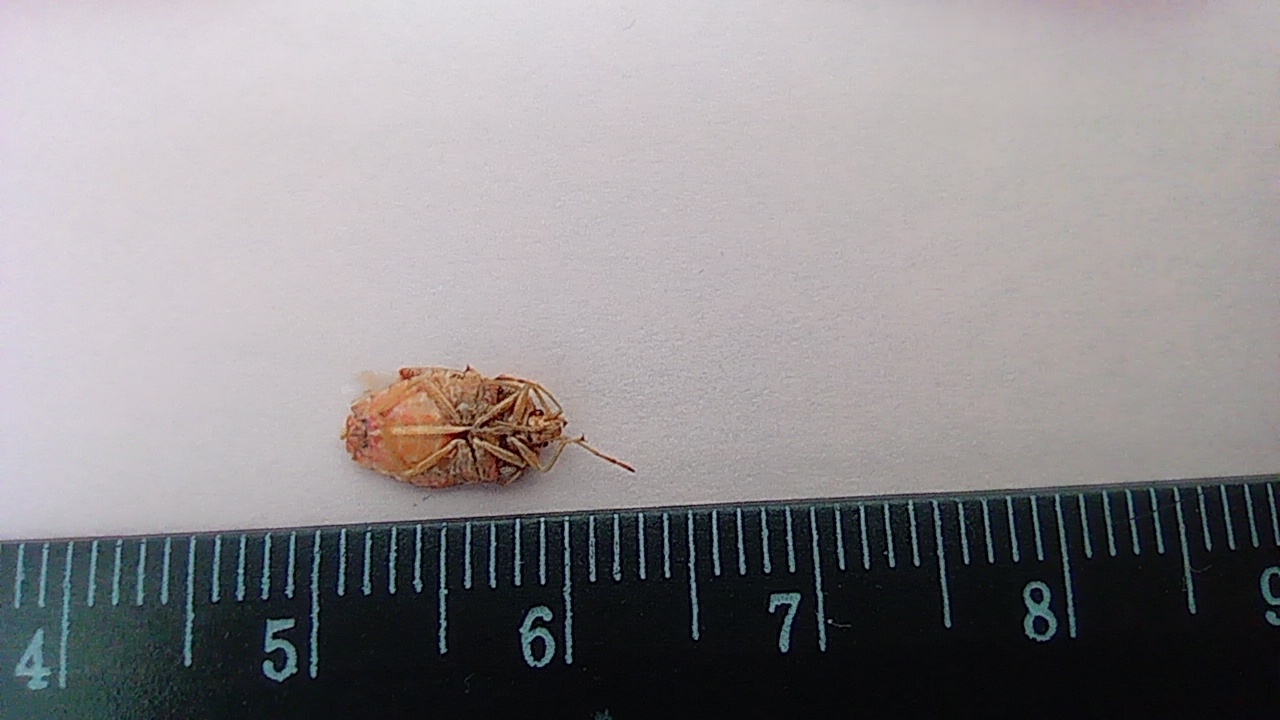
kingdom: Animalia
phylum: Arthropoda
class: Insecta
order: Hemiptera
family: Acanthosomatidae
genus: Elasmucha
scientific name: Elasmucha grisea
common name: Parent bug
